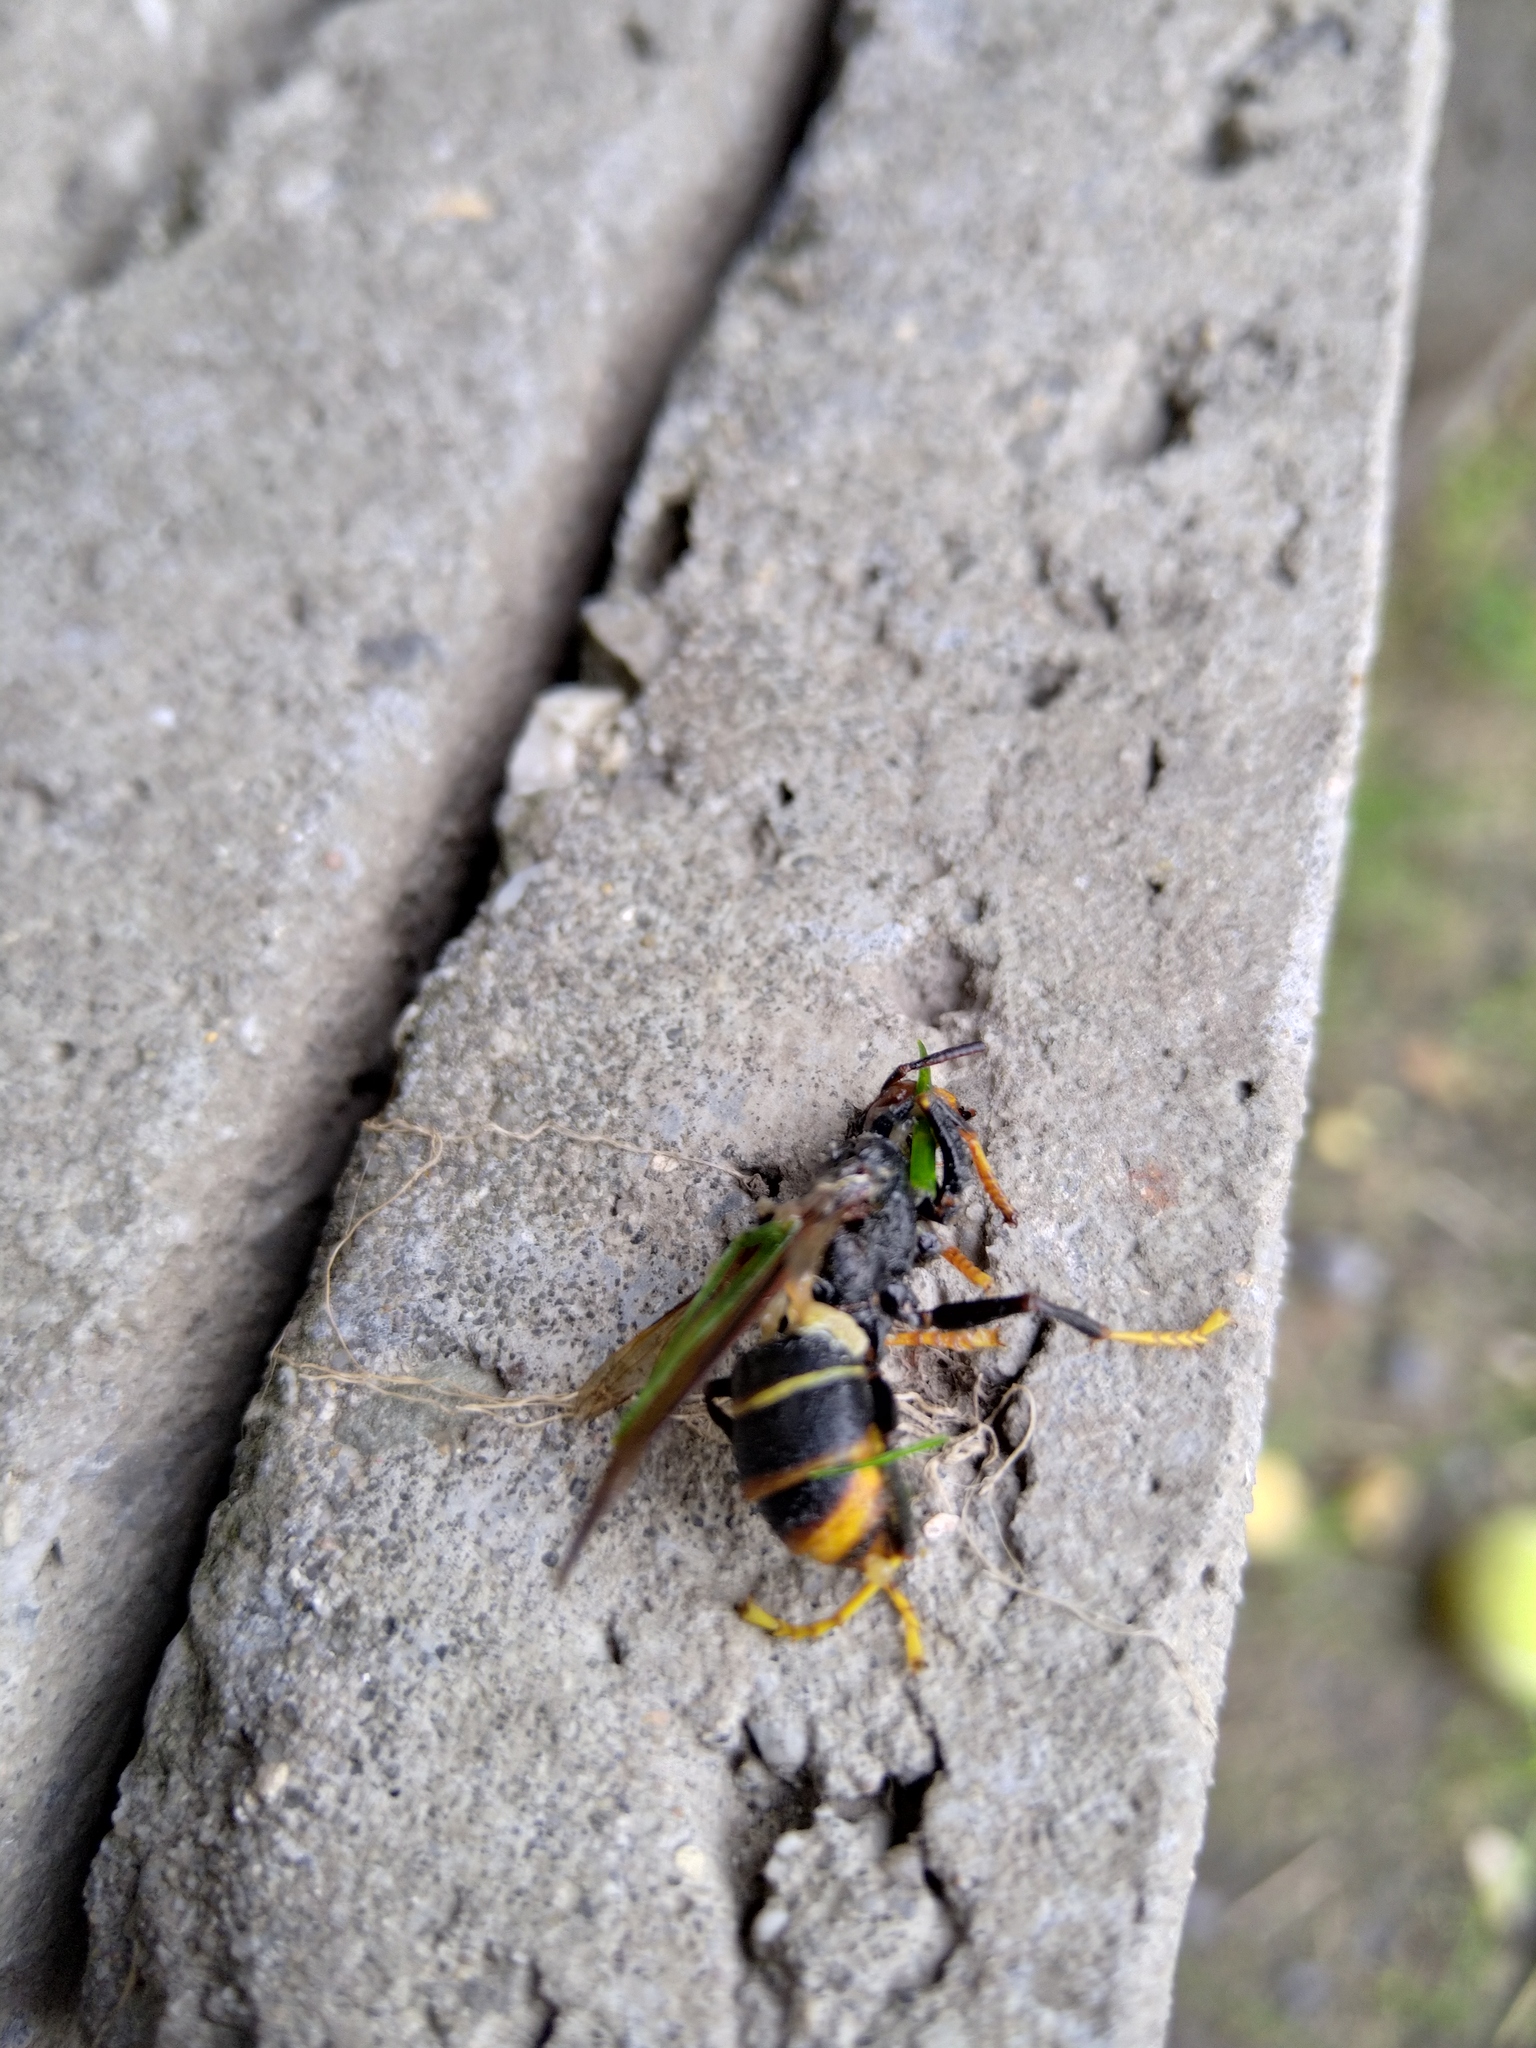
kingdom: Animalia
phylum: Arthropoda
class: Insecta
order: Hymenoptera
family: Vespidae
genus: Vespa
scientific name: Vespa velutina
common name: Asian hornet
